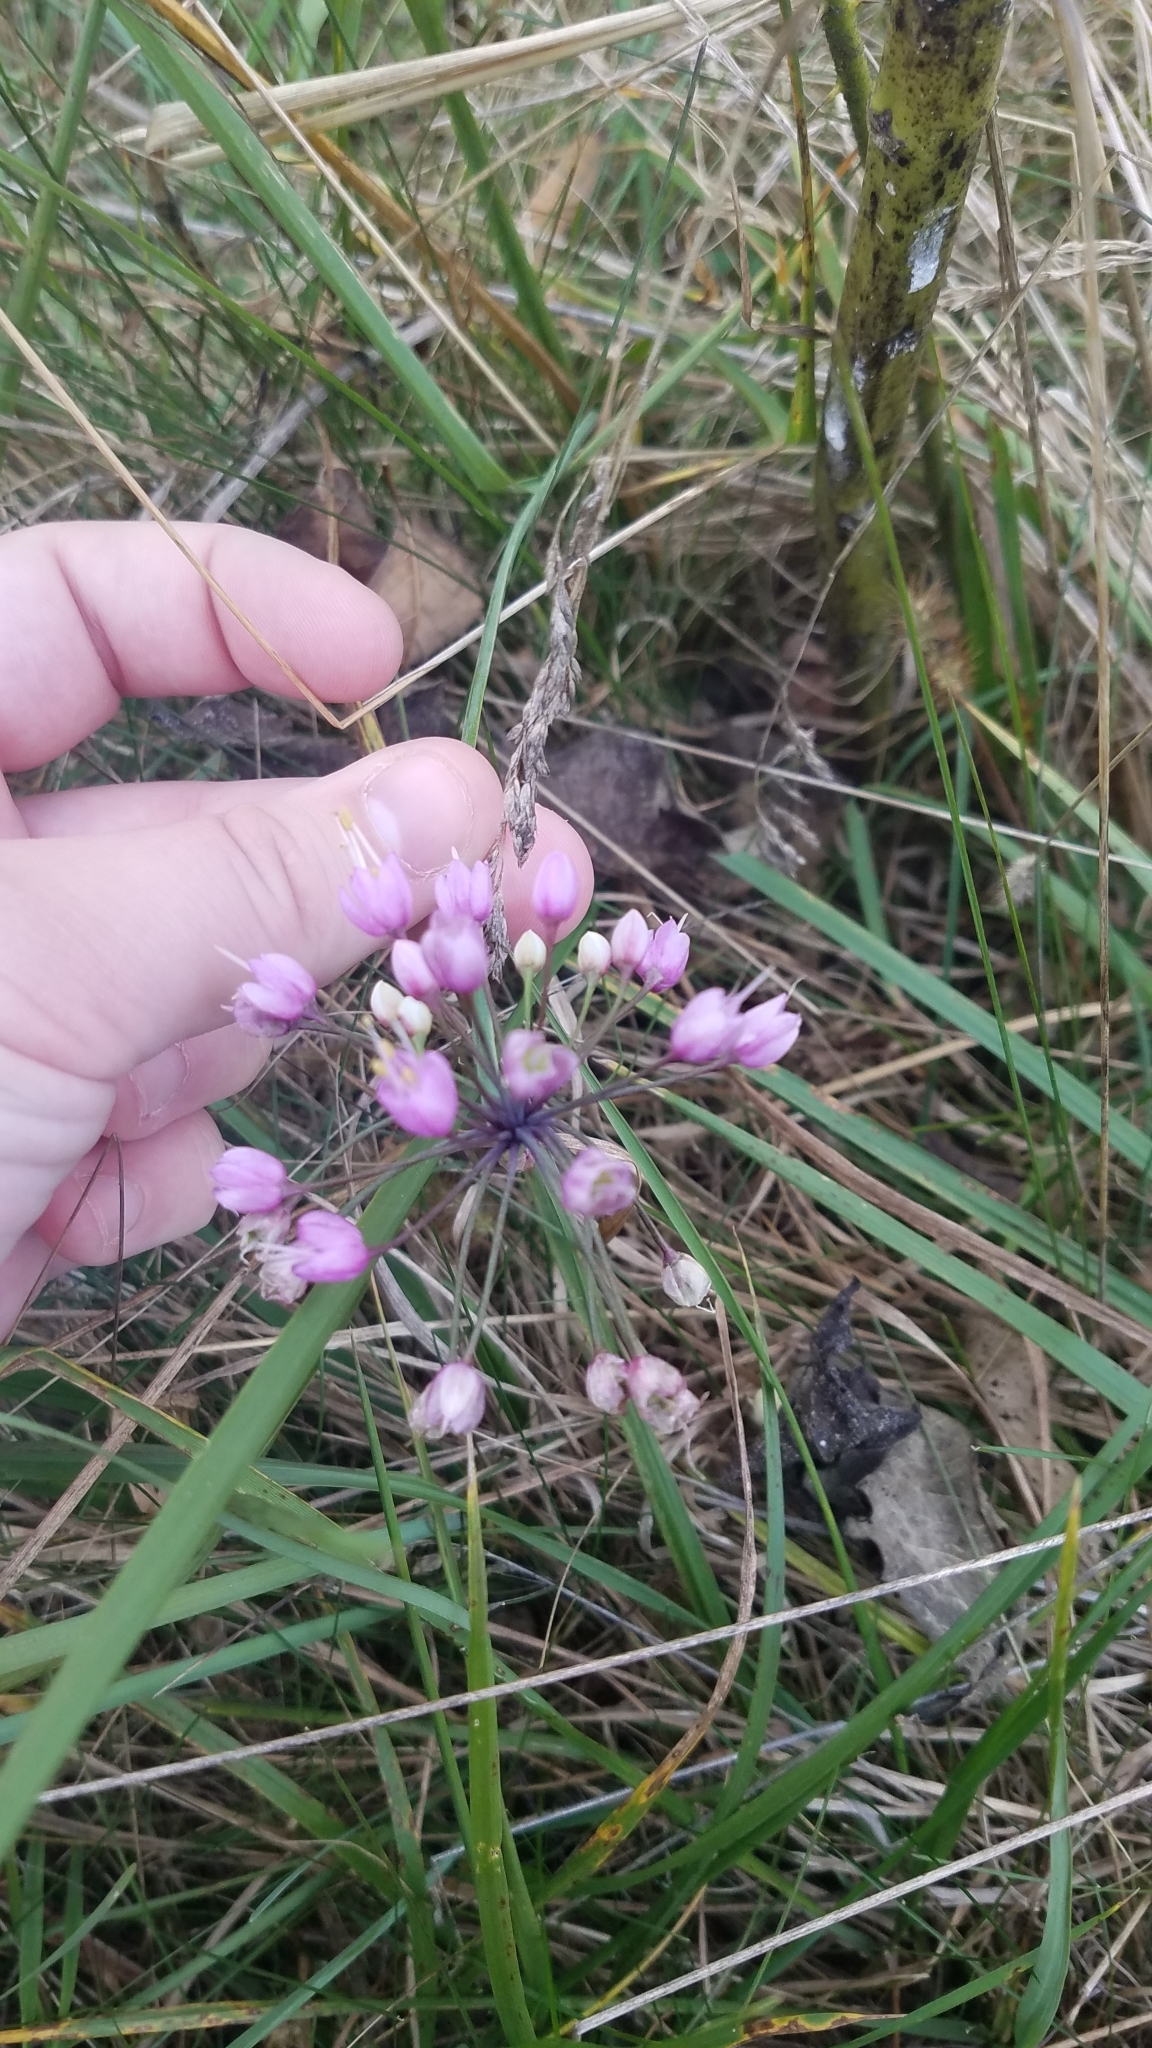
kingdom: Plantae
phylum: Tracheophyta
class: Liliopsida
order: Asparagales
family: Amaryllidaceae
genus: Allium
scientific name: Allium cernuum
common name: Nodding onion
